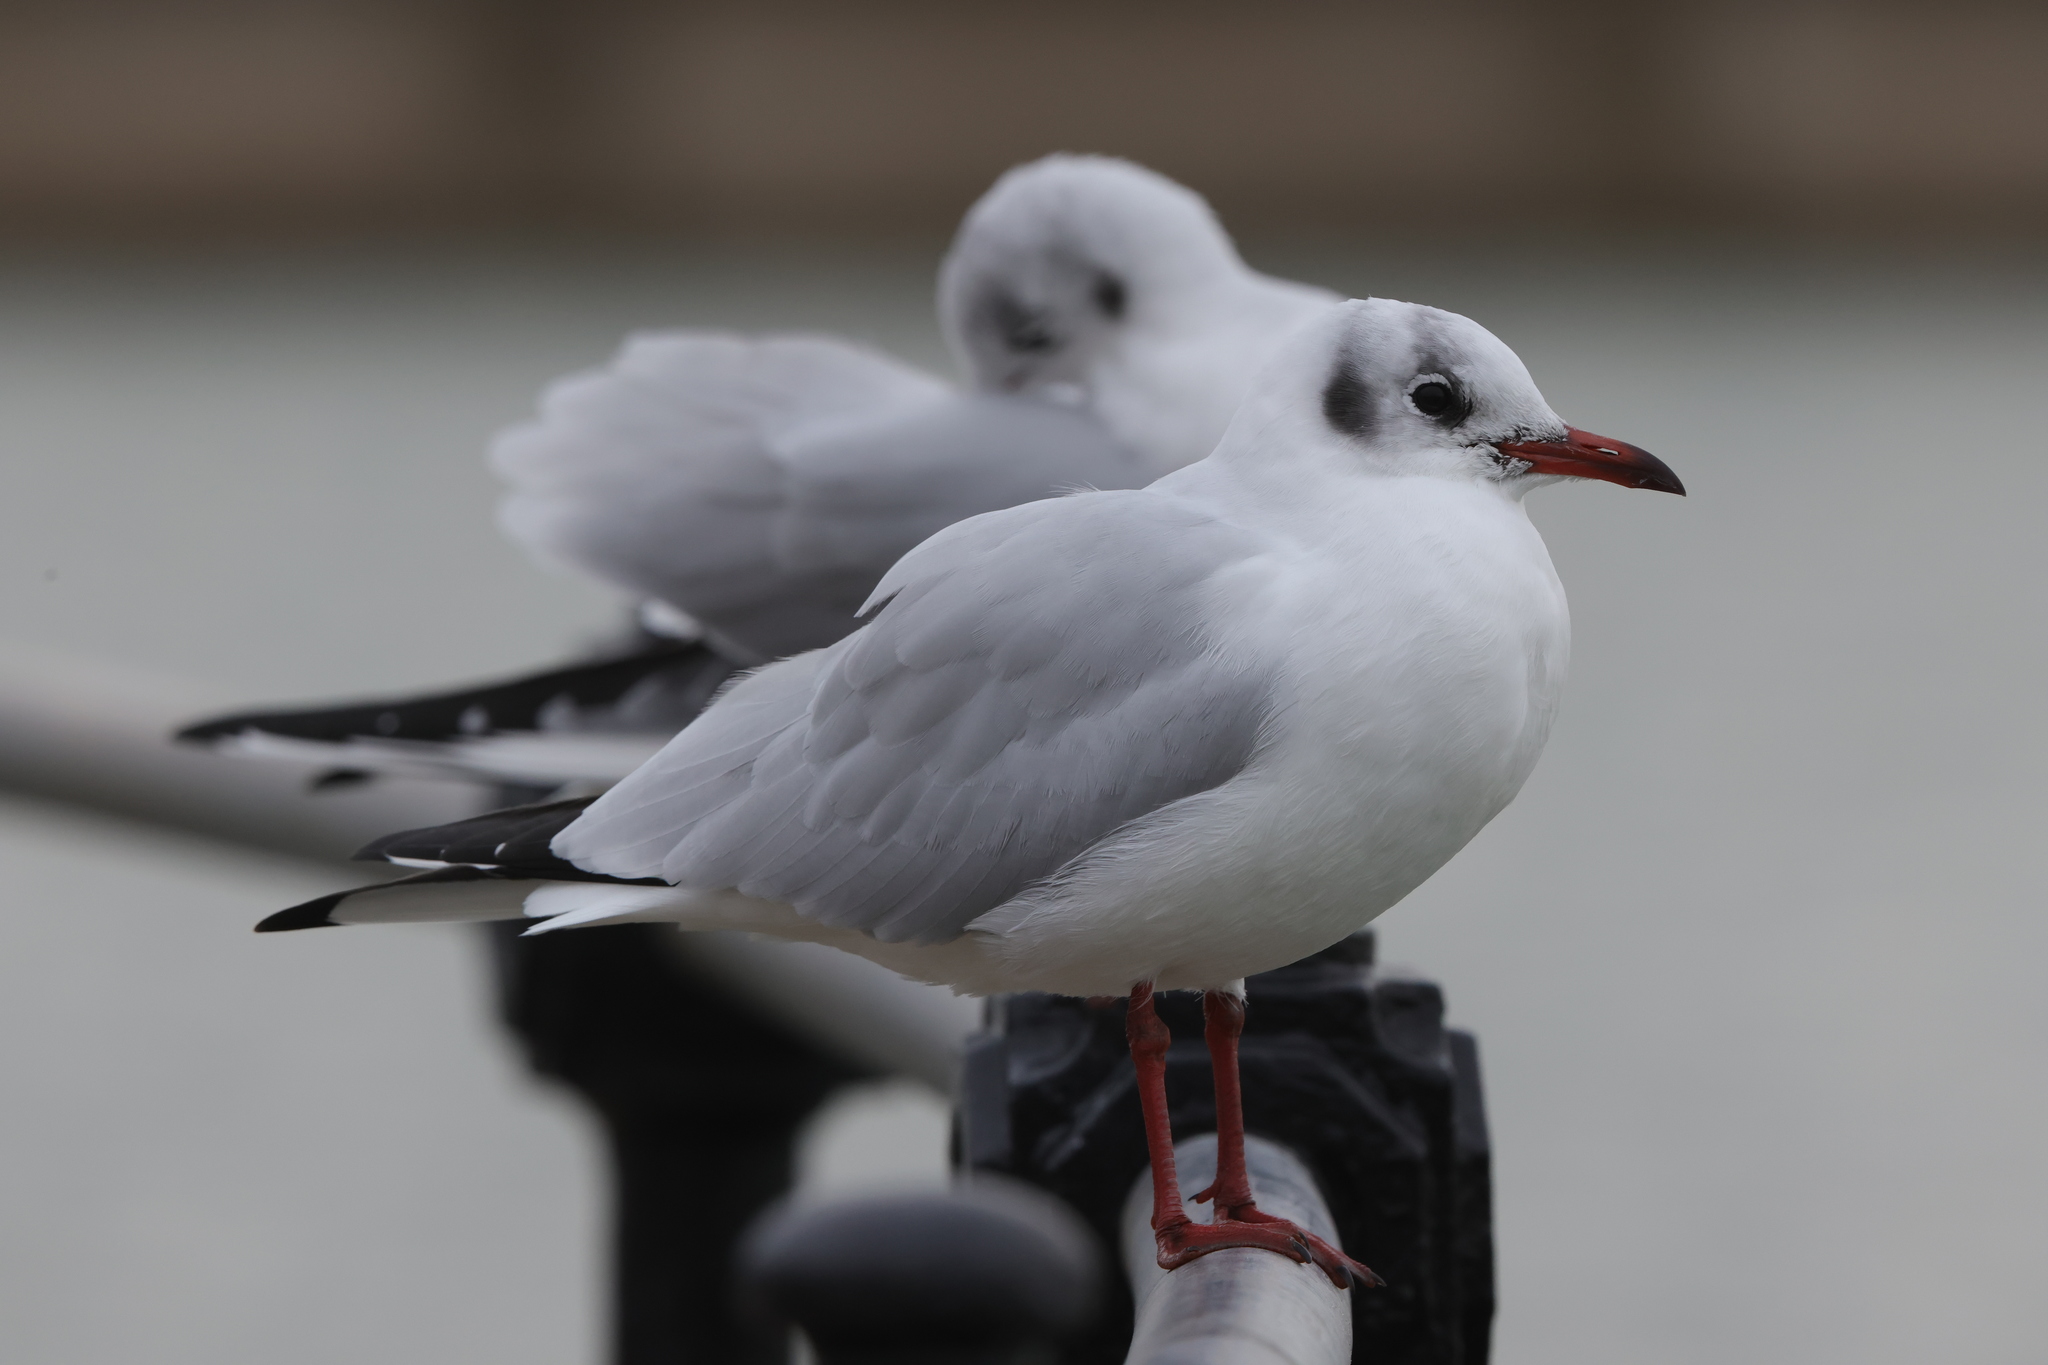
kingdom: Animalia
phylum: Chordata
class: Aves
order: Charadriiformes
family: Laridae
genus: Chroicocephalus
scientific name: Chroicocephalus ridibundus
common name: Black-headed gull
